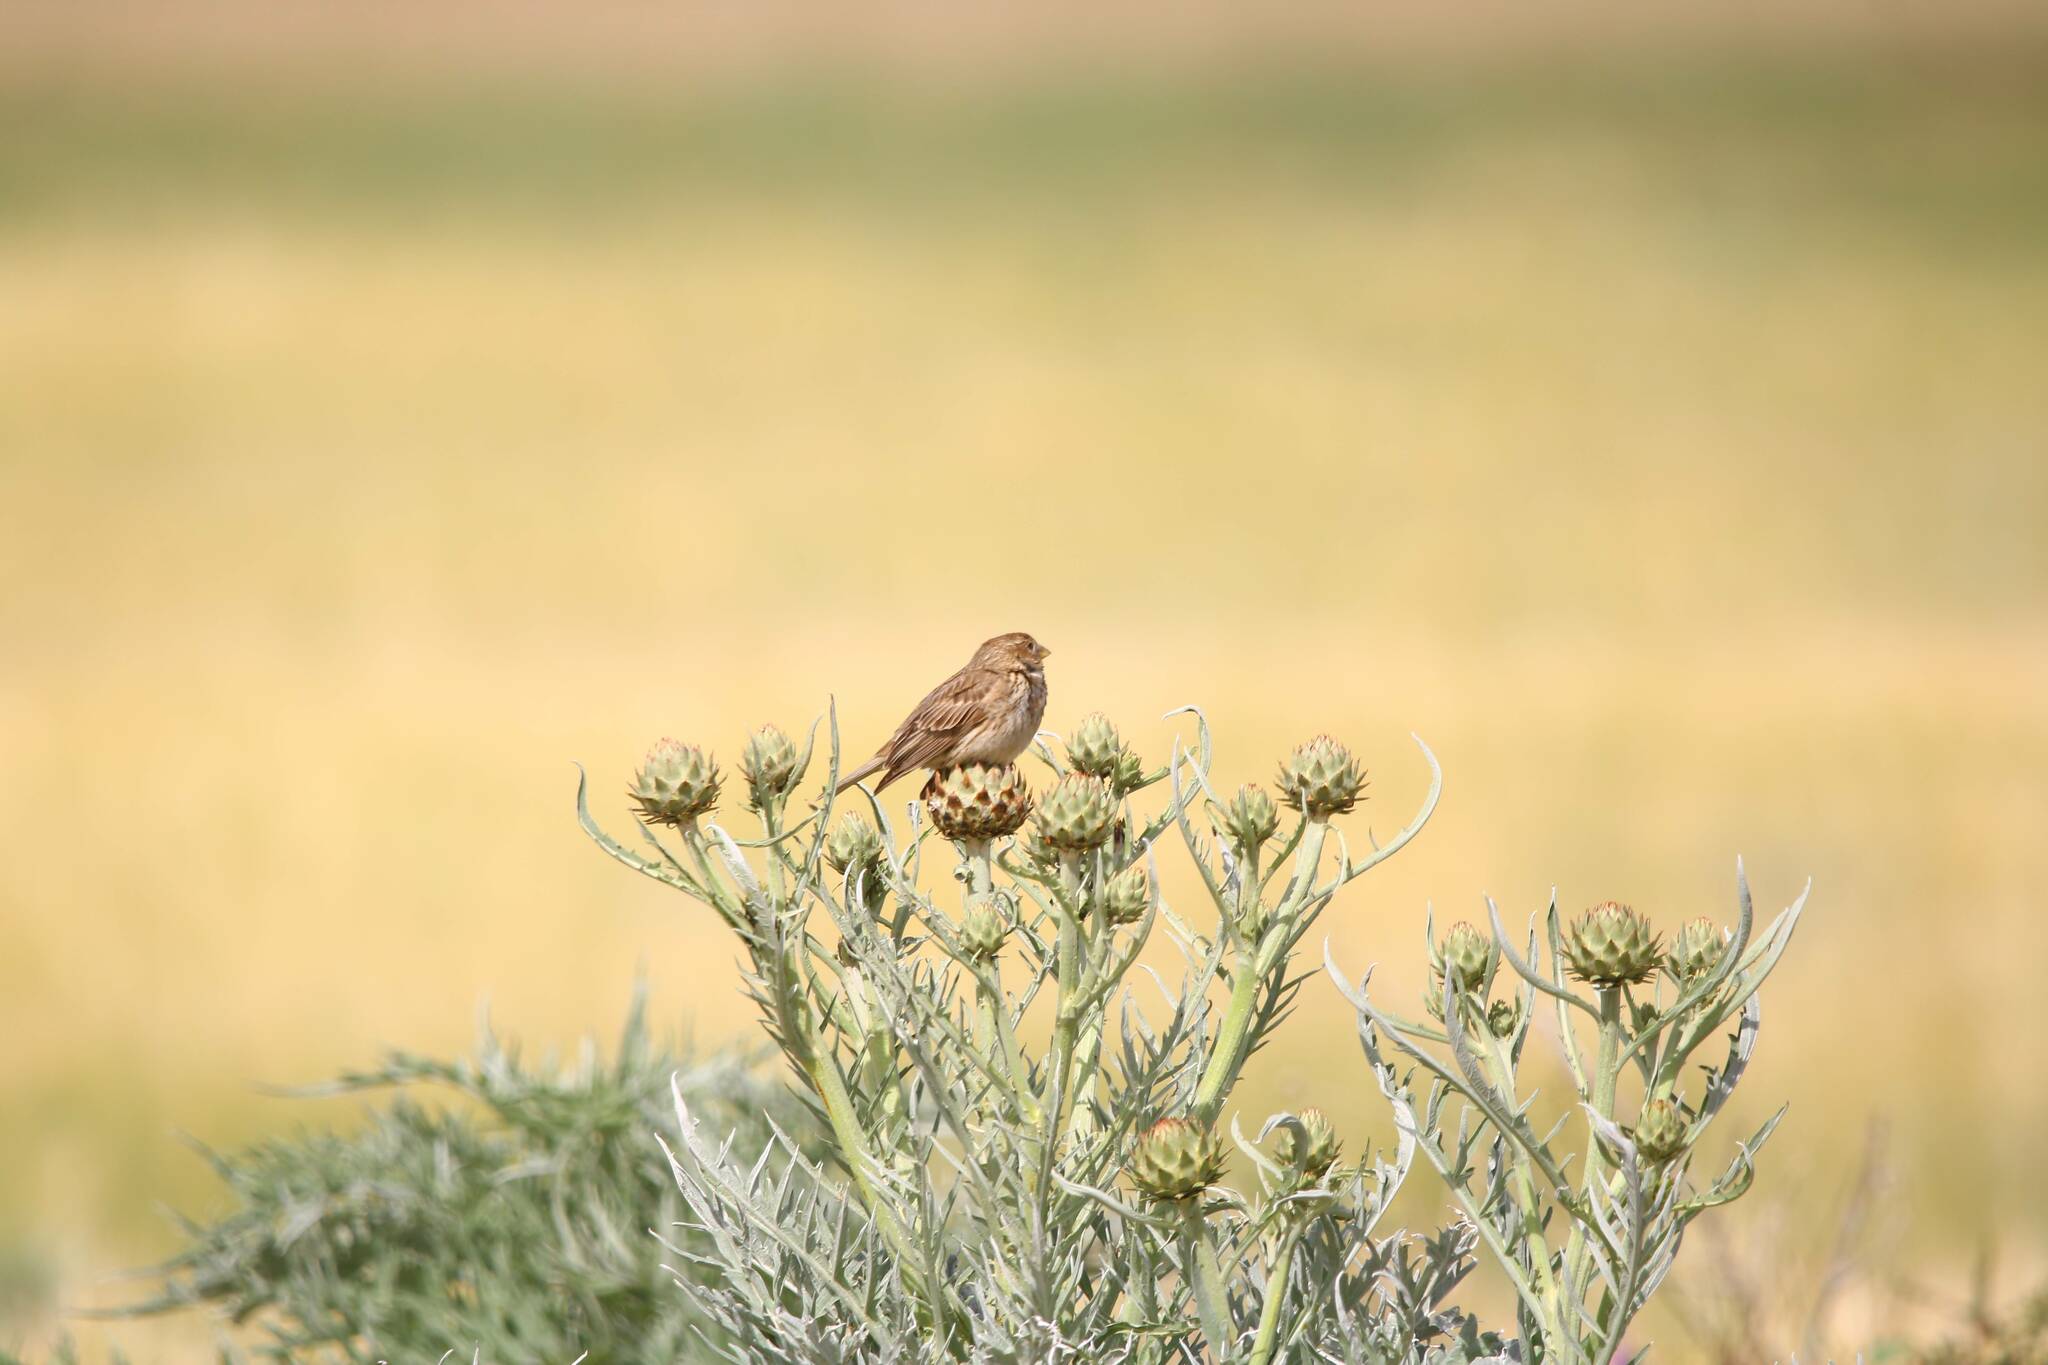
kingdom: Animalia
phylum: Chordata
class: Aves
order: Passeriformes
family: Emberizidae
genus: Emberiza
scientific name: Emberiza calandra
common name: Corn bunting
